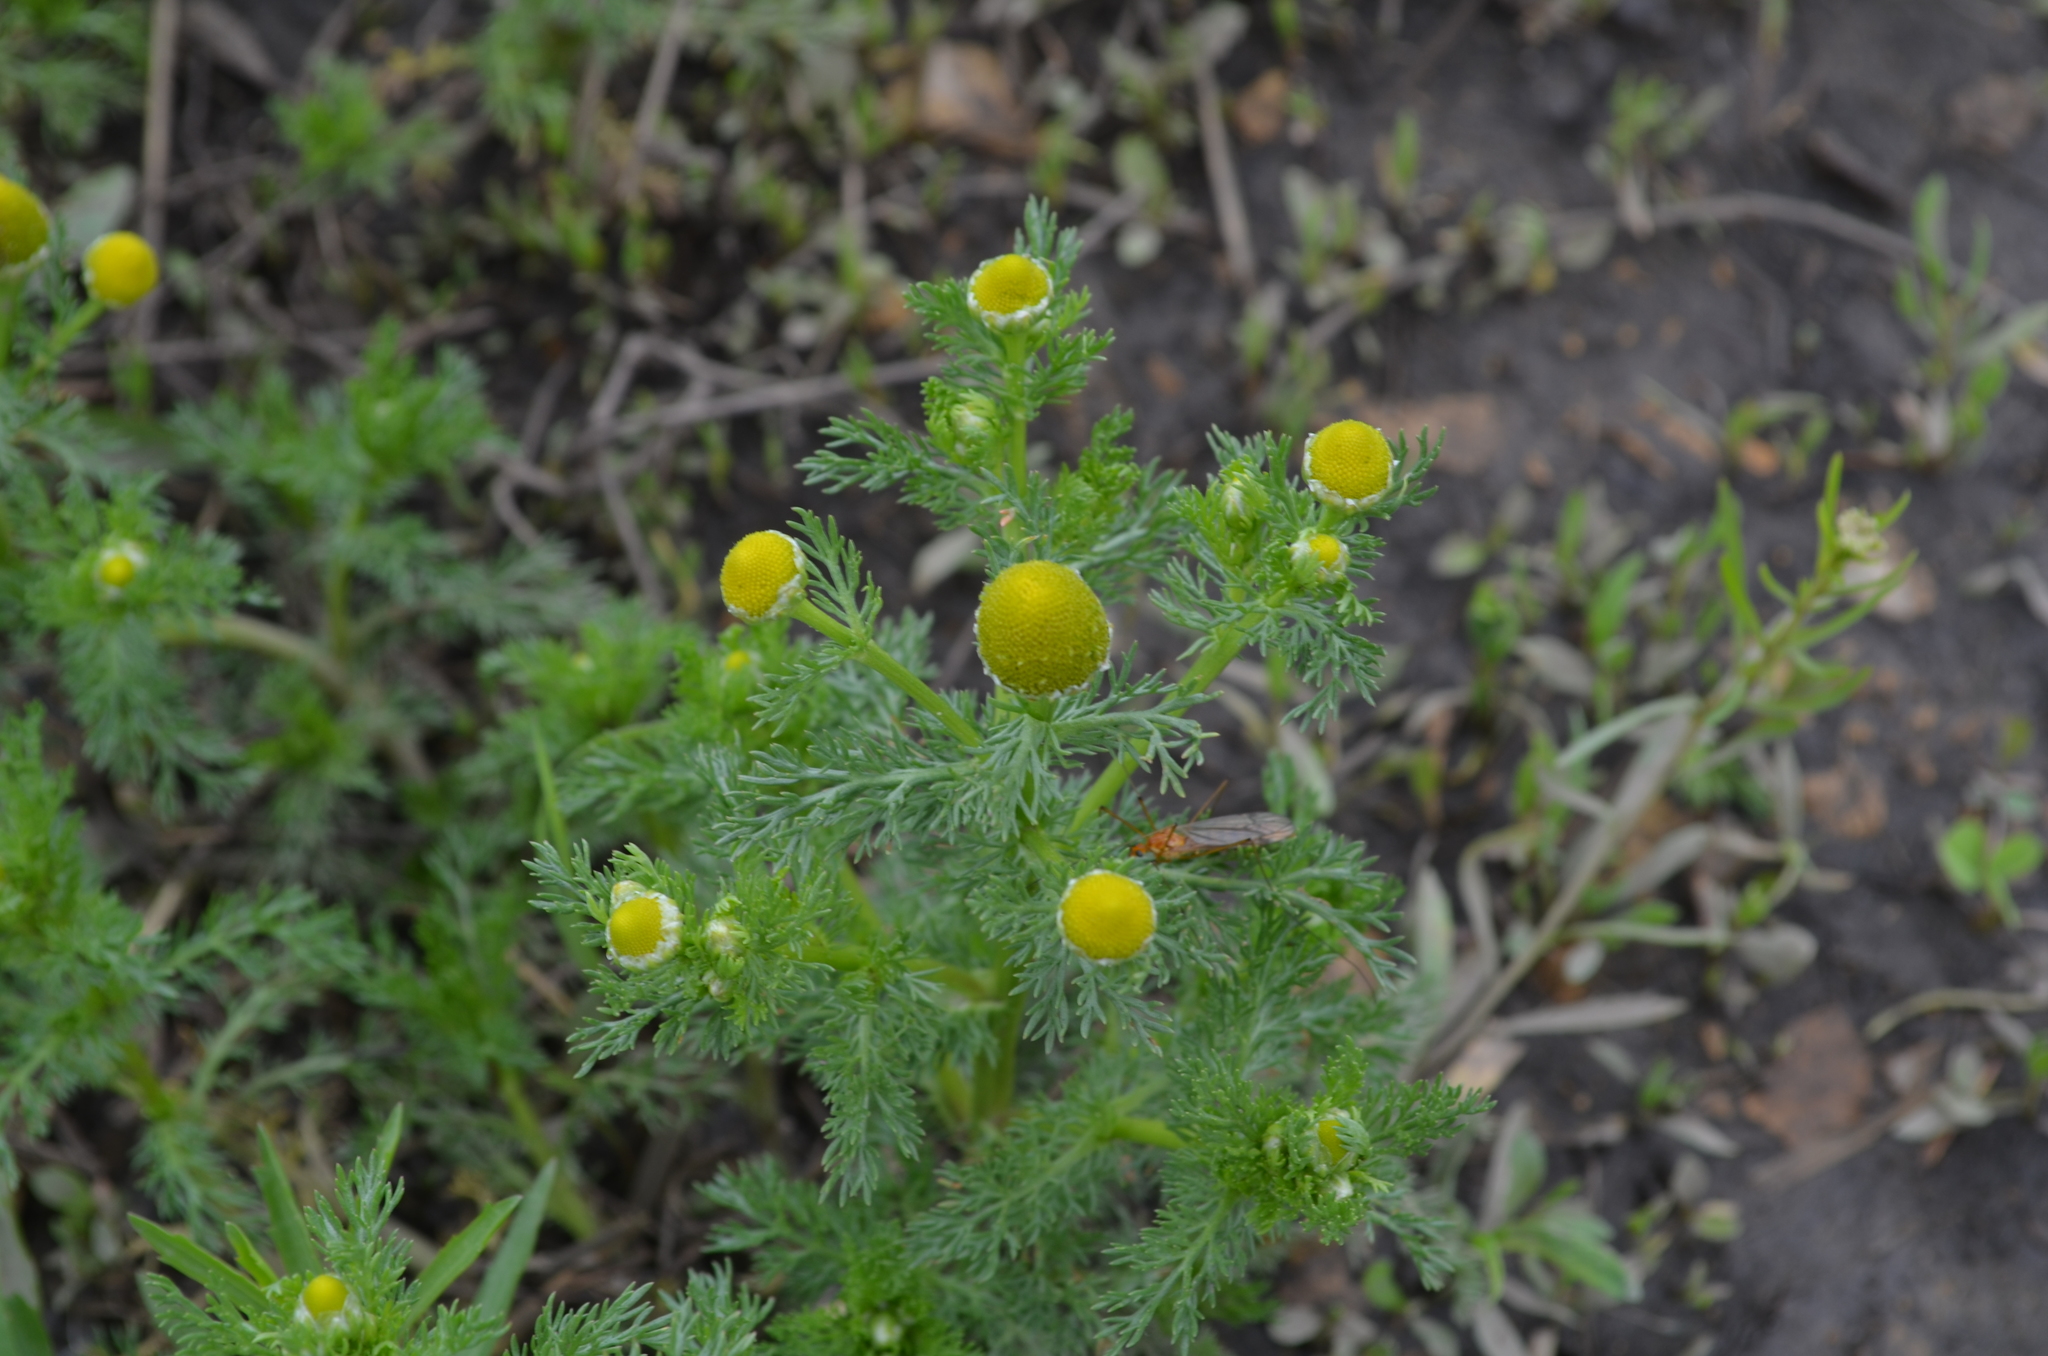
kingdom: Plantae
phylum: Tracheophyta
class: Magnoliopsida
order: Asterales
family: Asteraceae
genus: Matricaria
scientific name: Matricaria discoidea
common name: Disc mayweed
